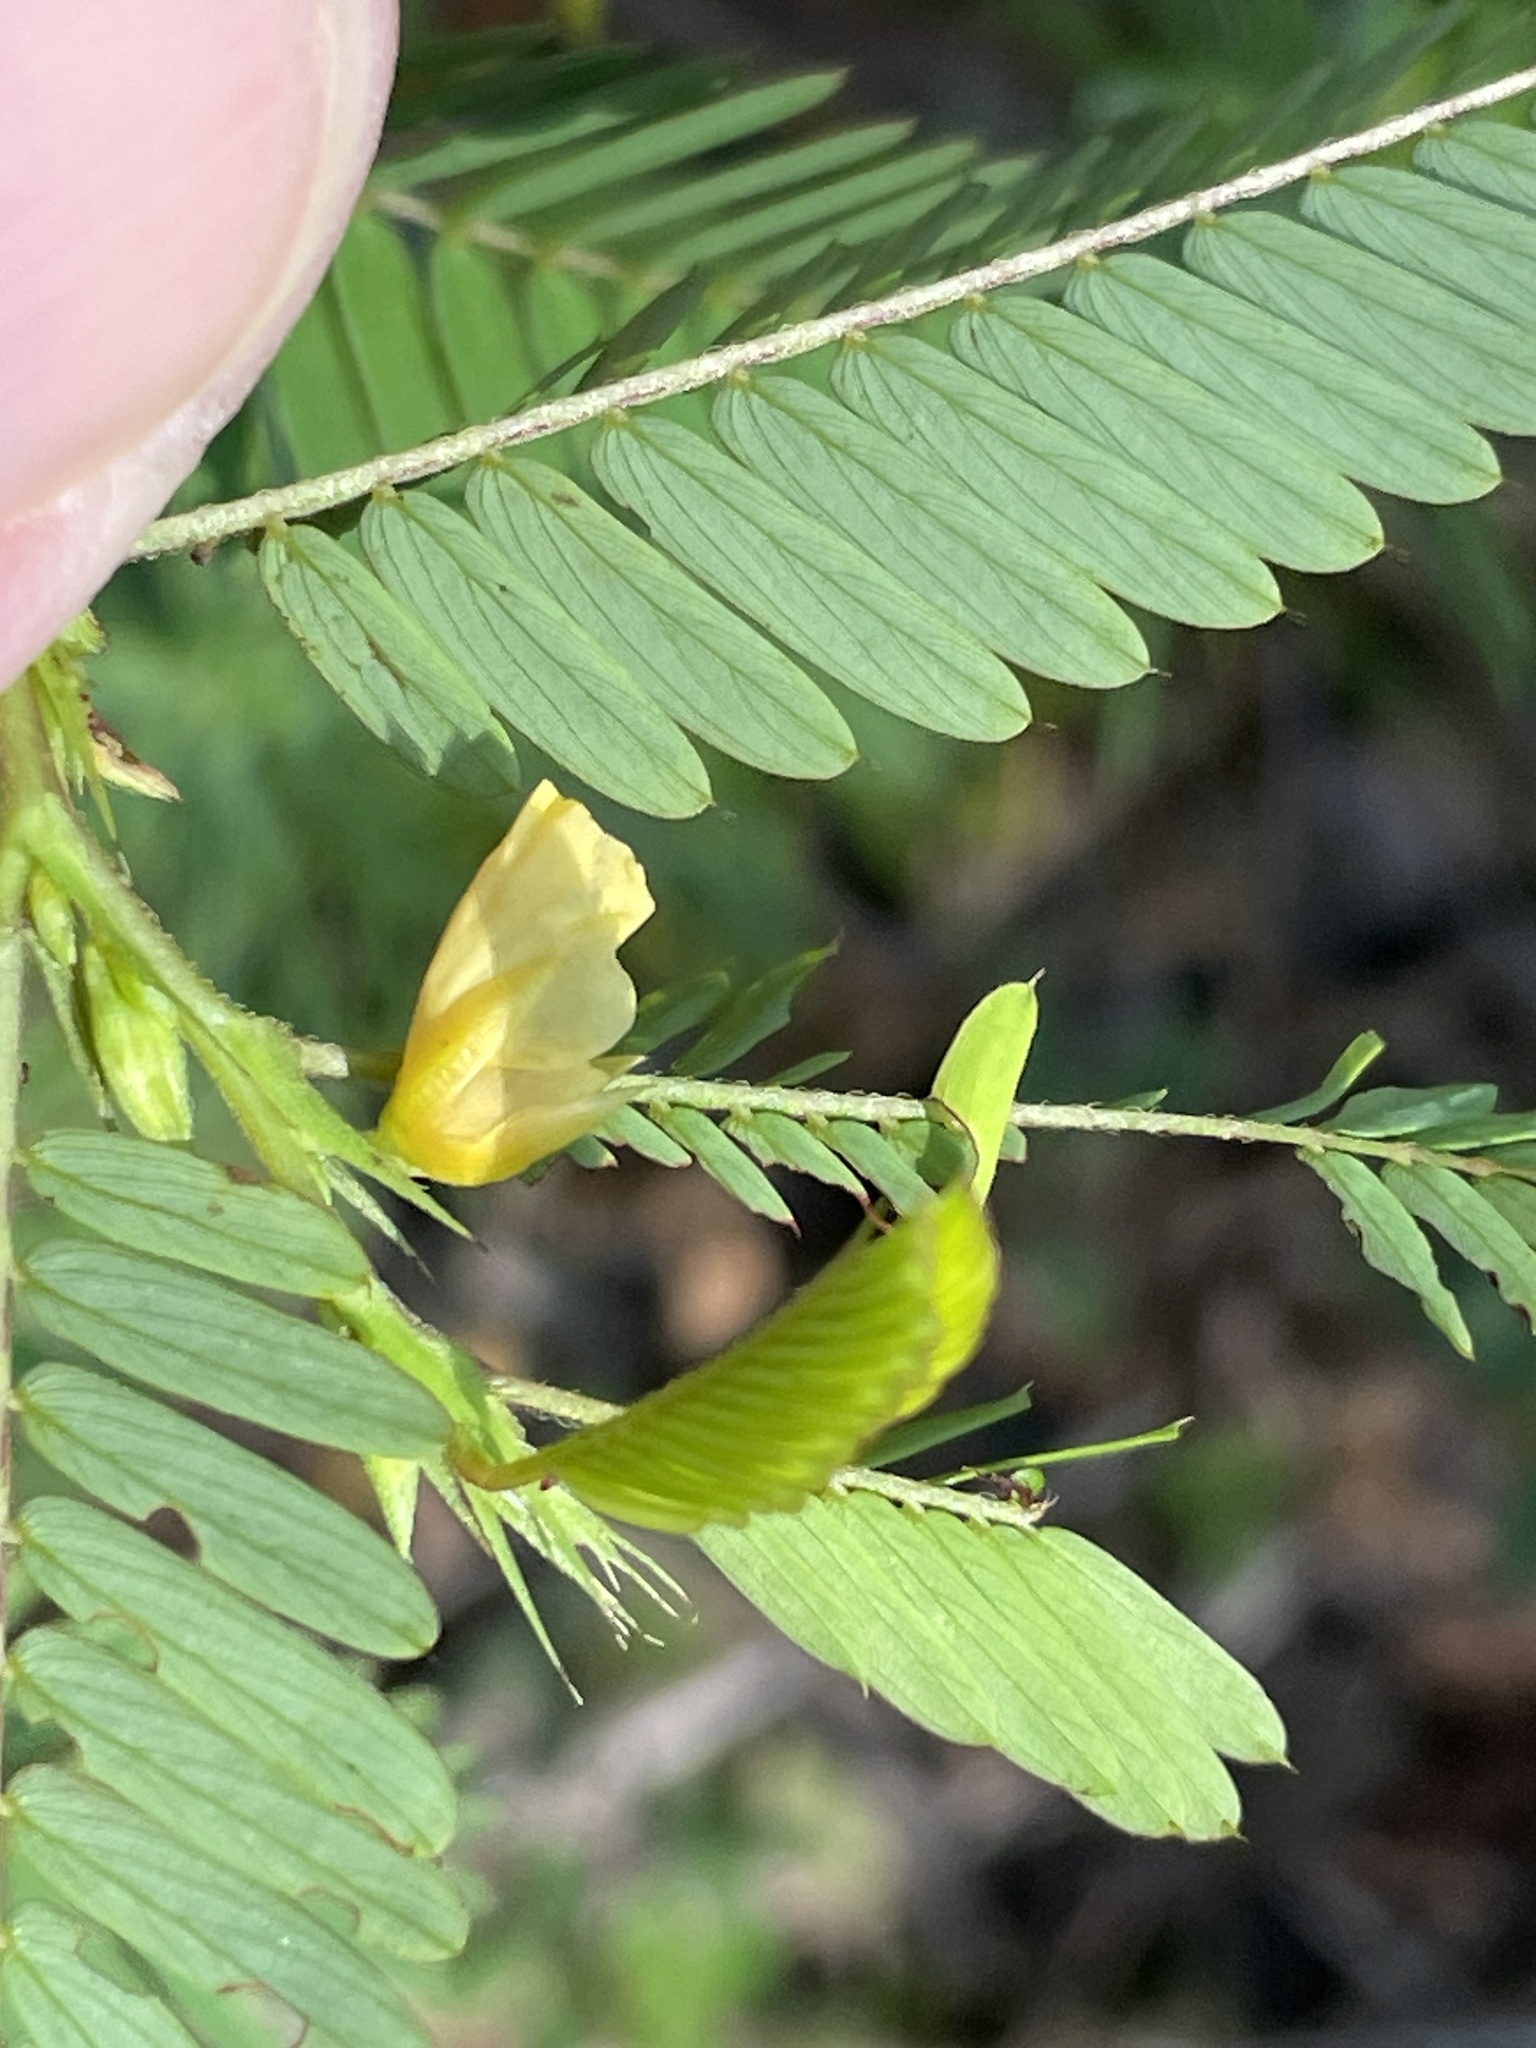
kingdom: Plantae
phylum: Tracheophyta
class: Magnoliopsida
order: Fabales
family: Fabaceae
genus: Chamaecrista
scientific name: Chamaecrista nictitans
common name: Sensitive cassia
